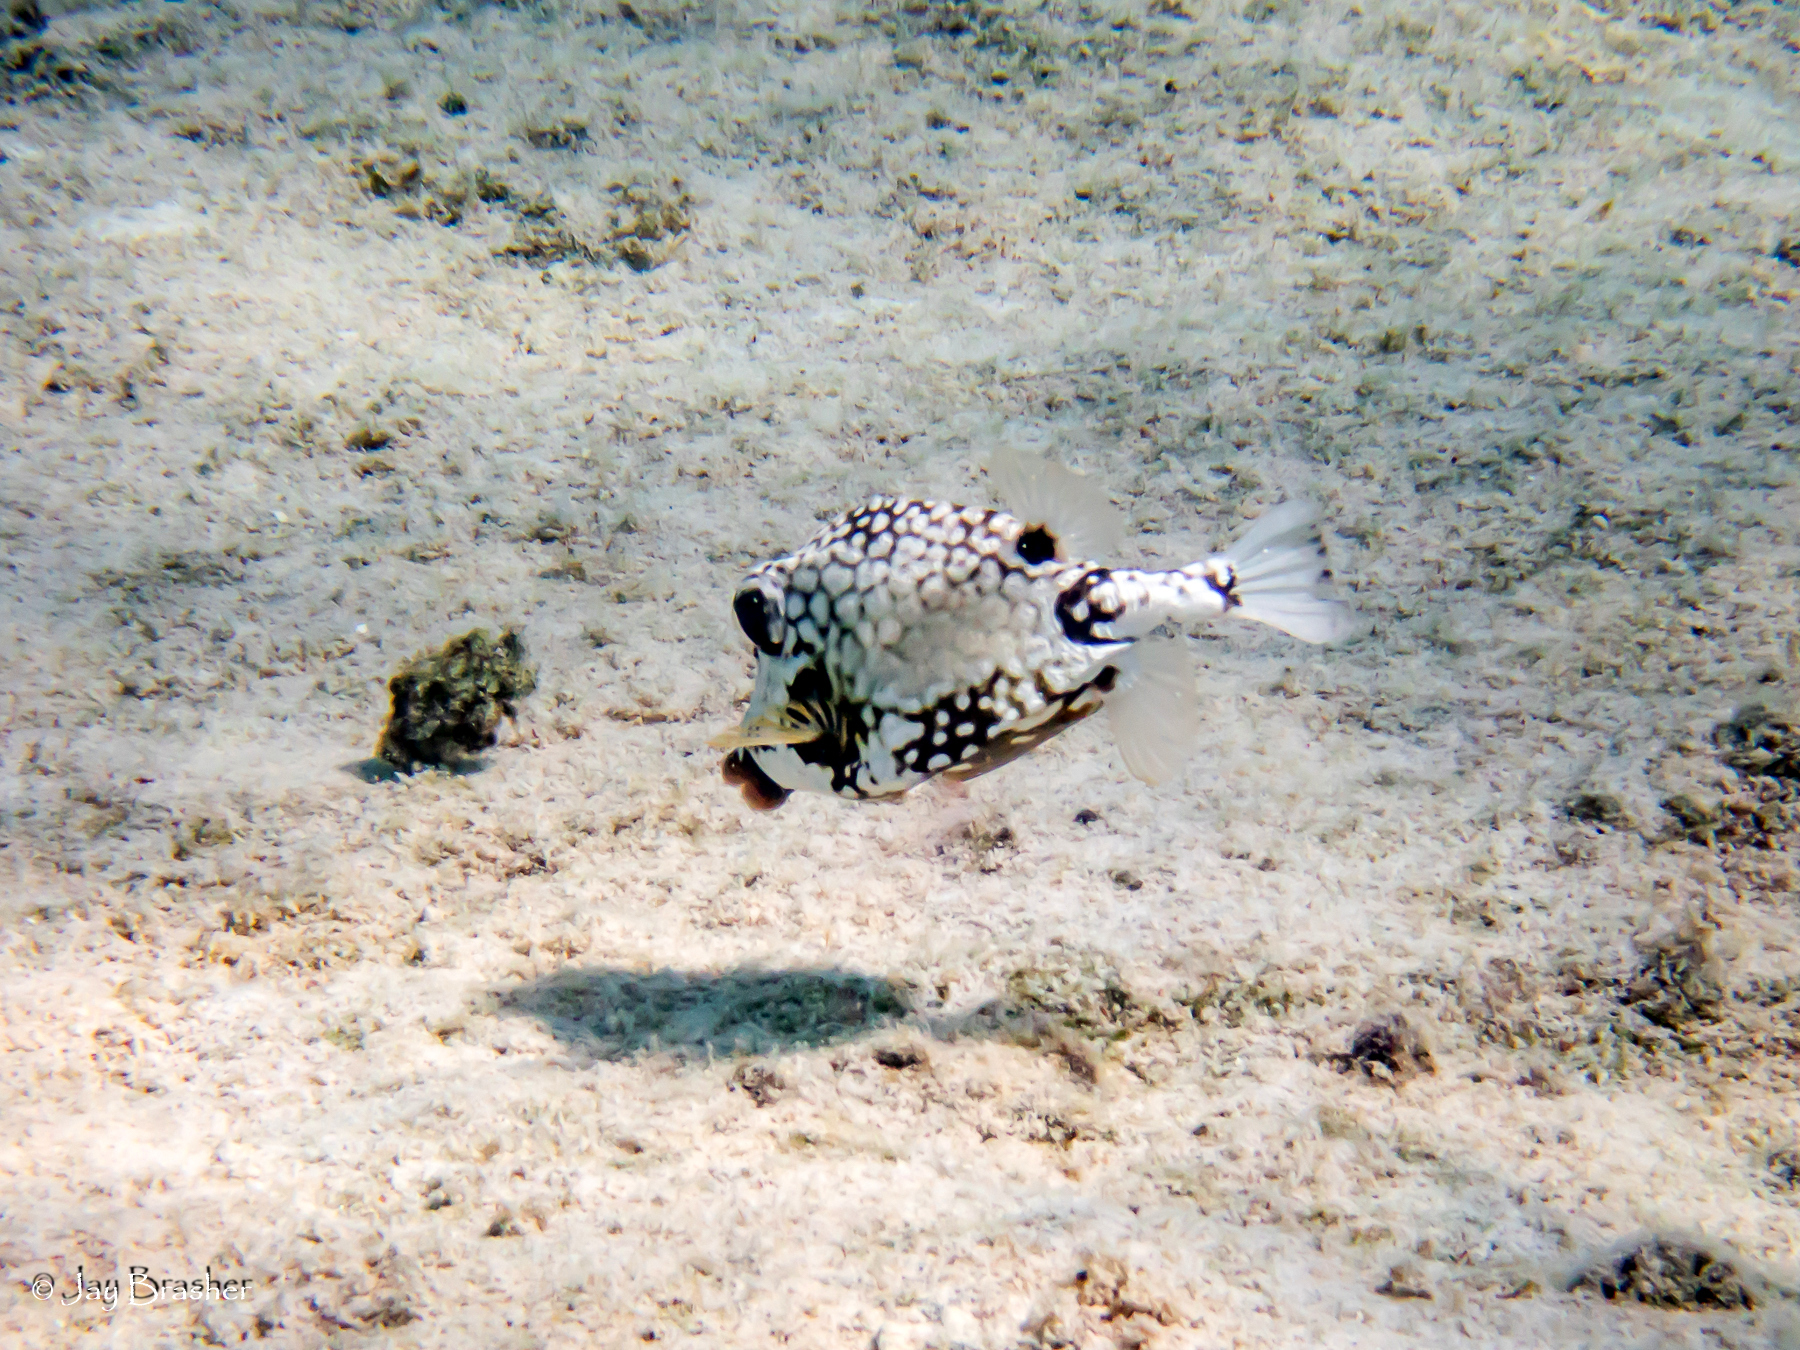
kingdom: Animalia
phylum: Chordata
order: Tetraodontiformes
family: Ostraciidae
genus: Lactophrys
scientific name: Lactophrys triqueter
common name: Smooth trunkfish
